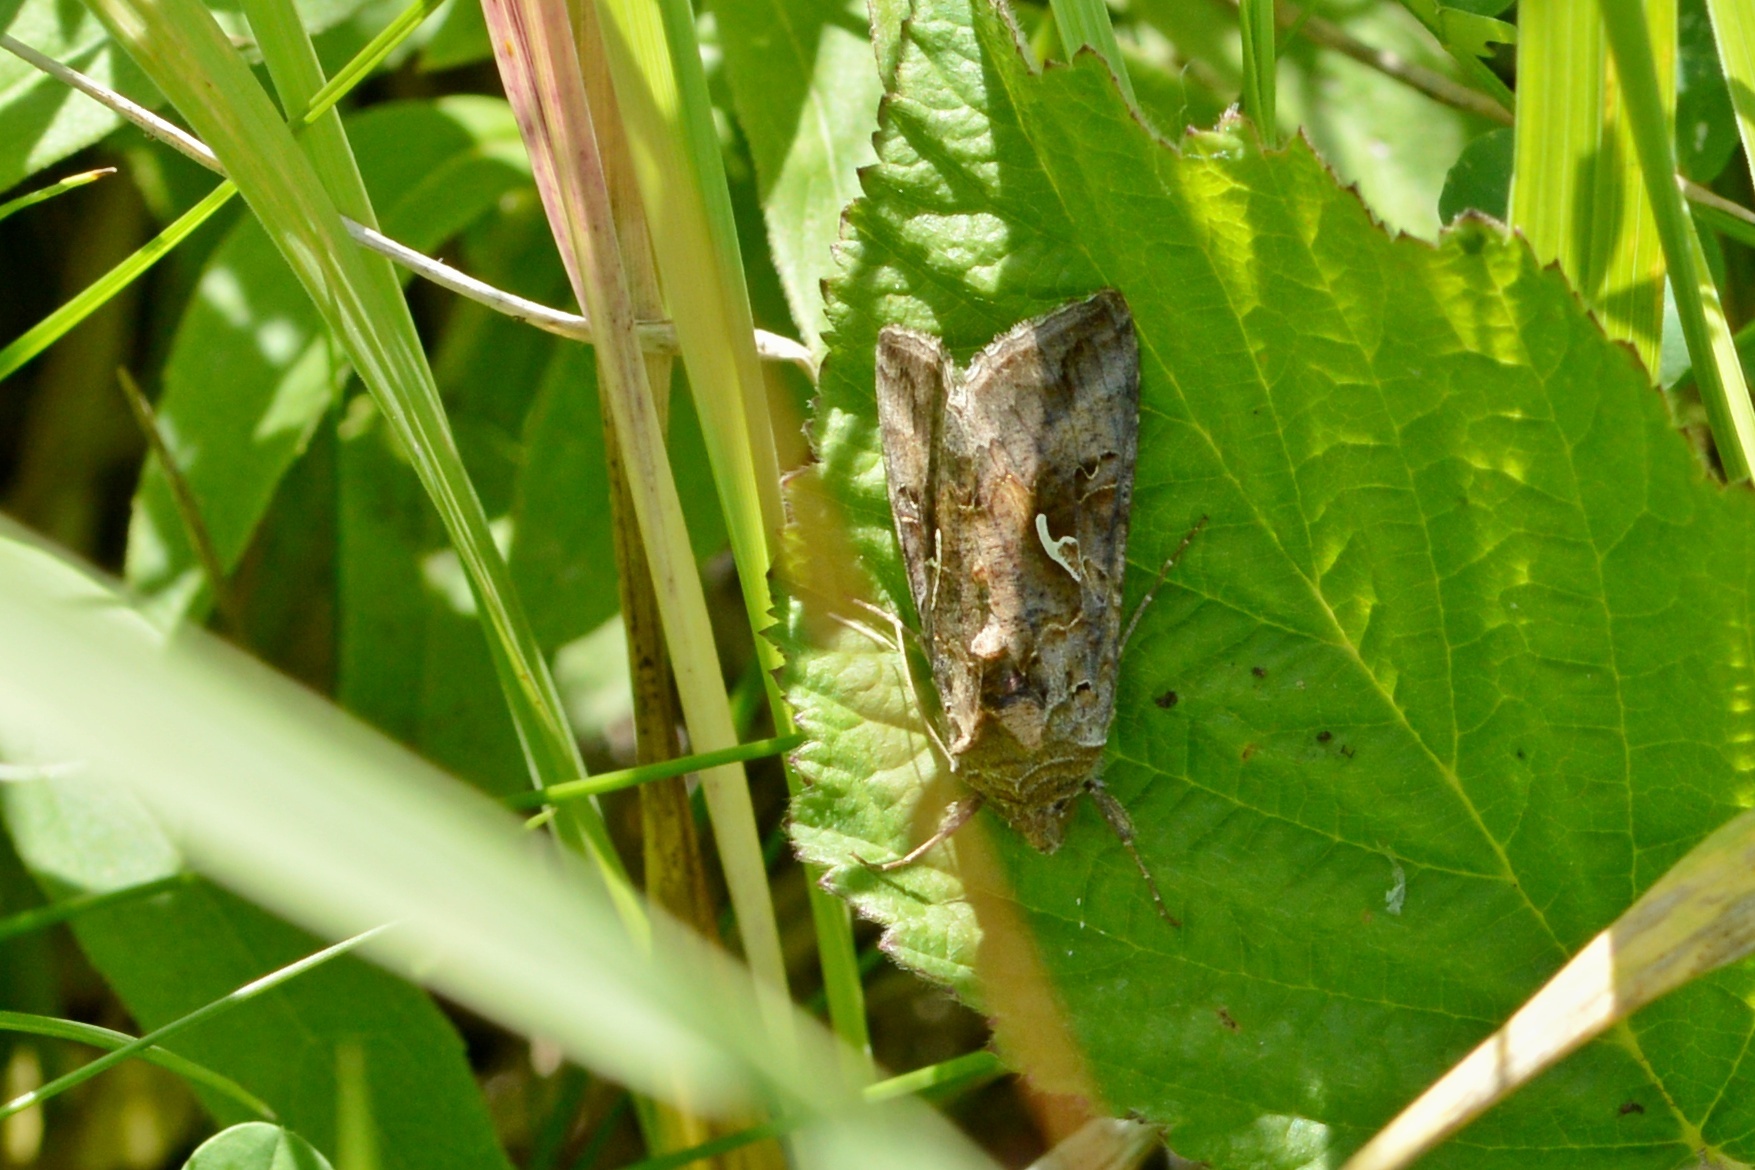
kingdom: Animalia
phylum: Arthropoda
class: Insecta
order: Lepidoptera
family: Noctuidae
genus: Autographa
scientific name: Autographa gamma
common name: Silver y
